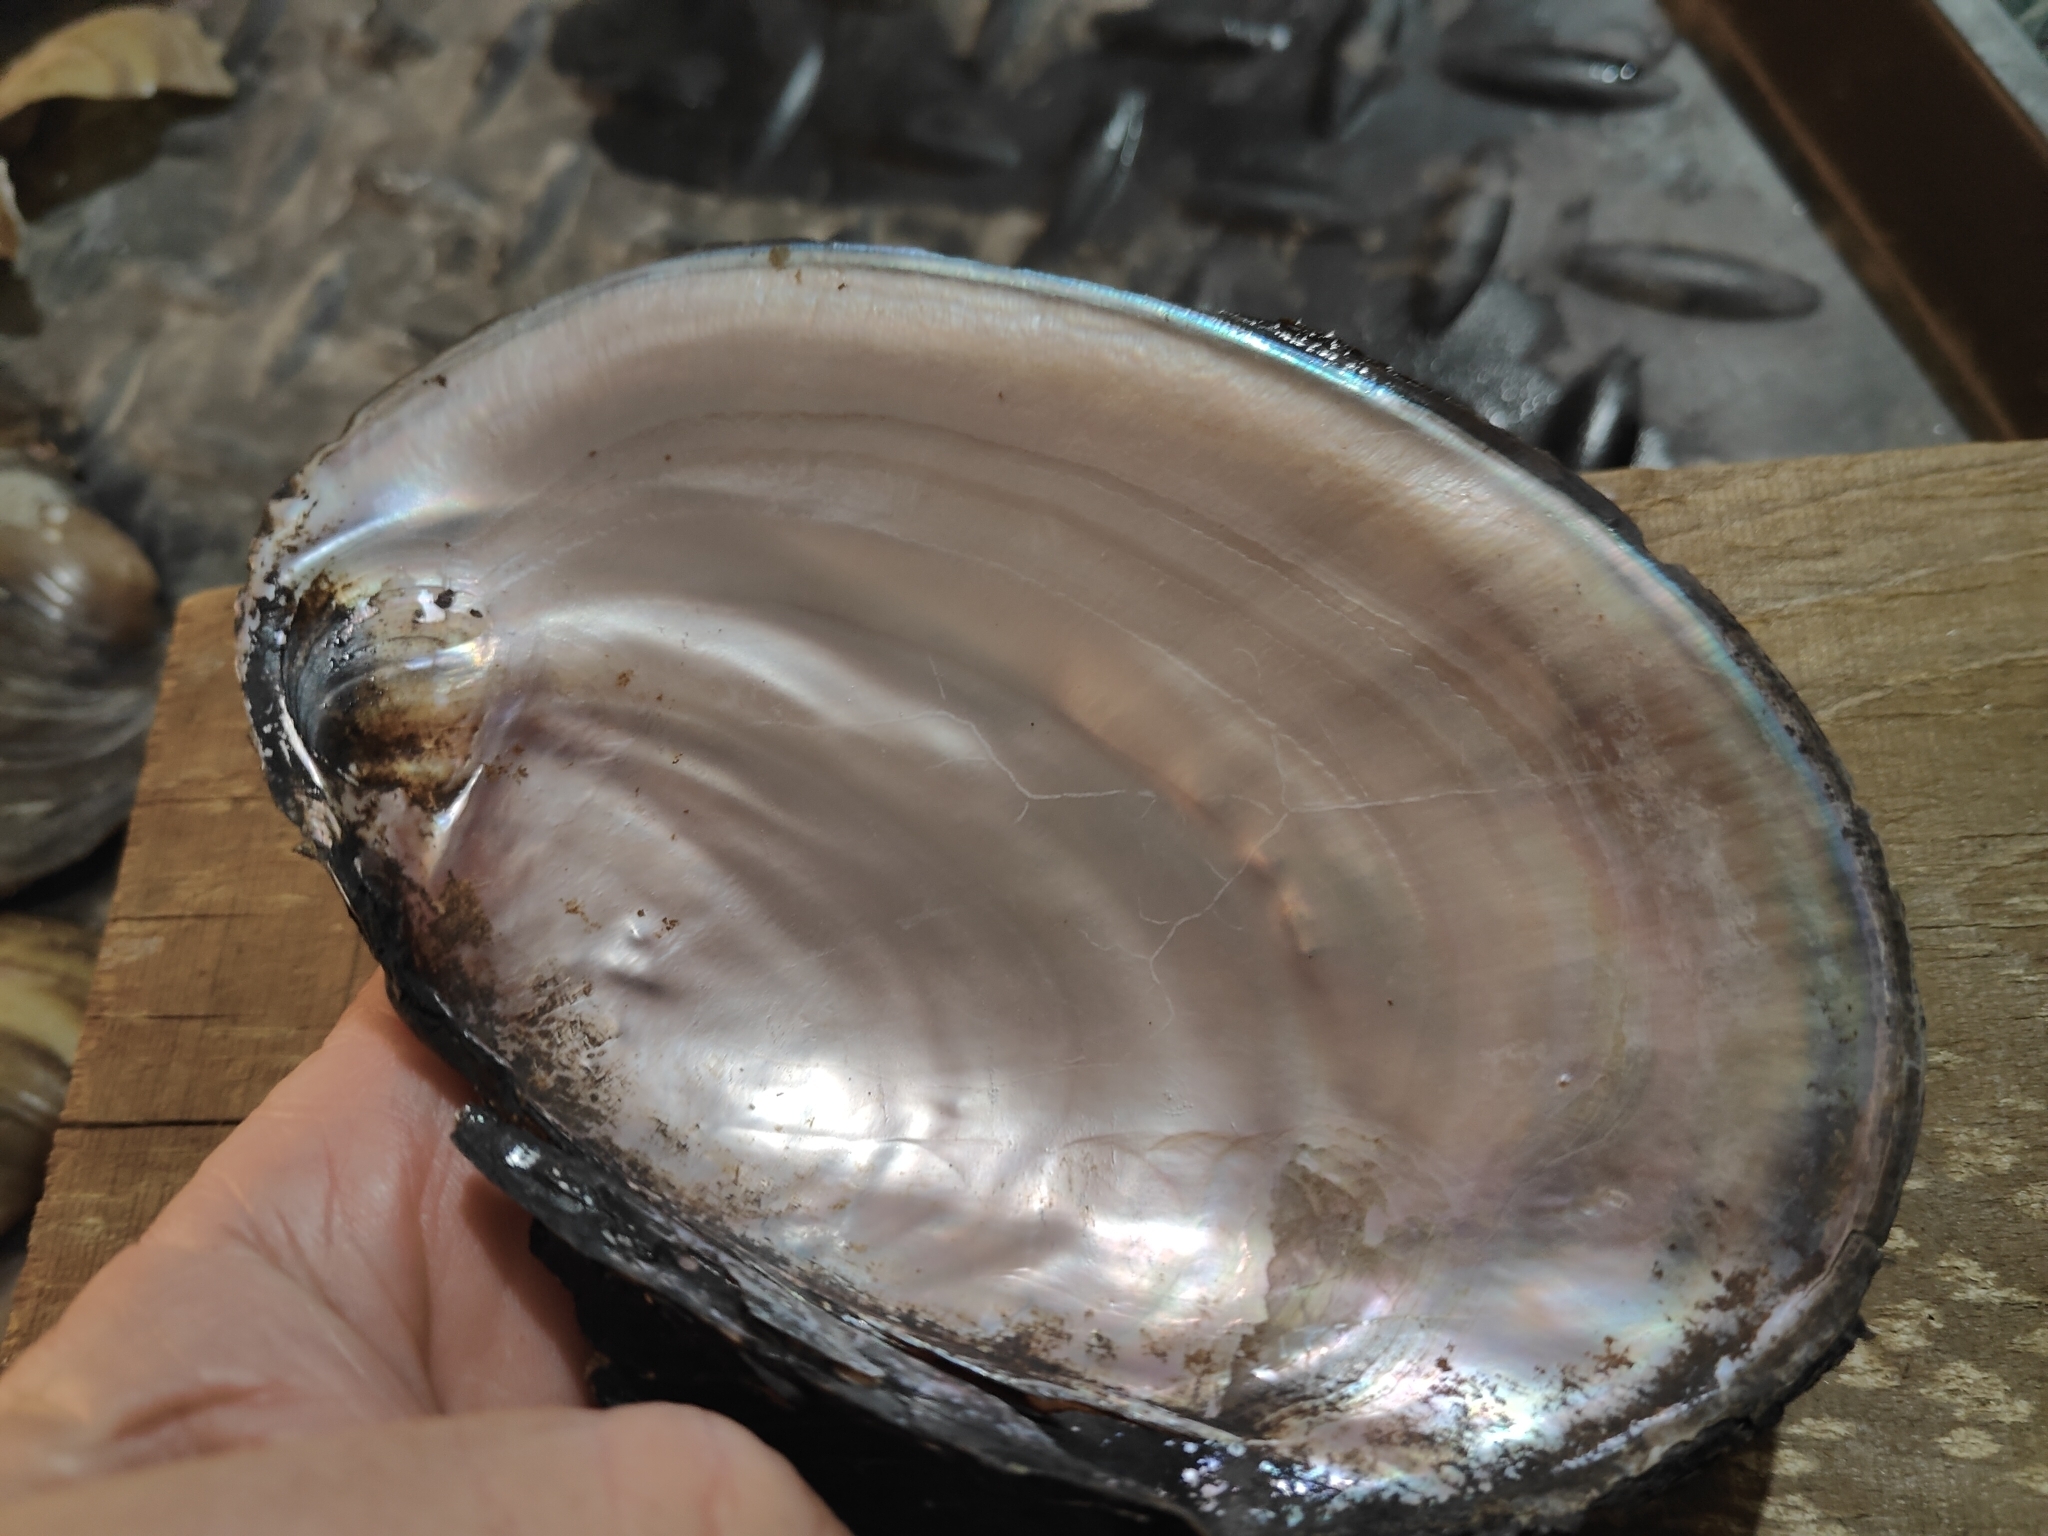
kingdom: Animalia
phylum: Mollusca
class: Bivalvia
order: Unionida
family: Unionidae
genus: Potamilus
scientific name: Potamilus ohiensis
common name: Pink papershell
